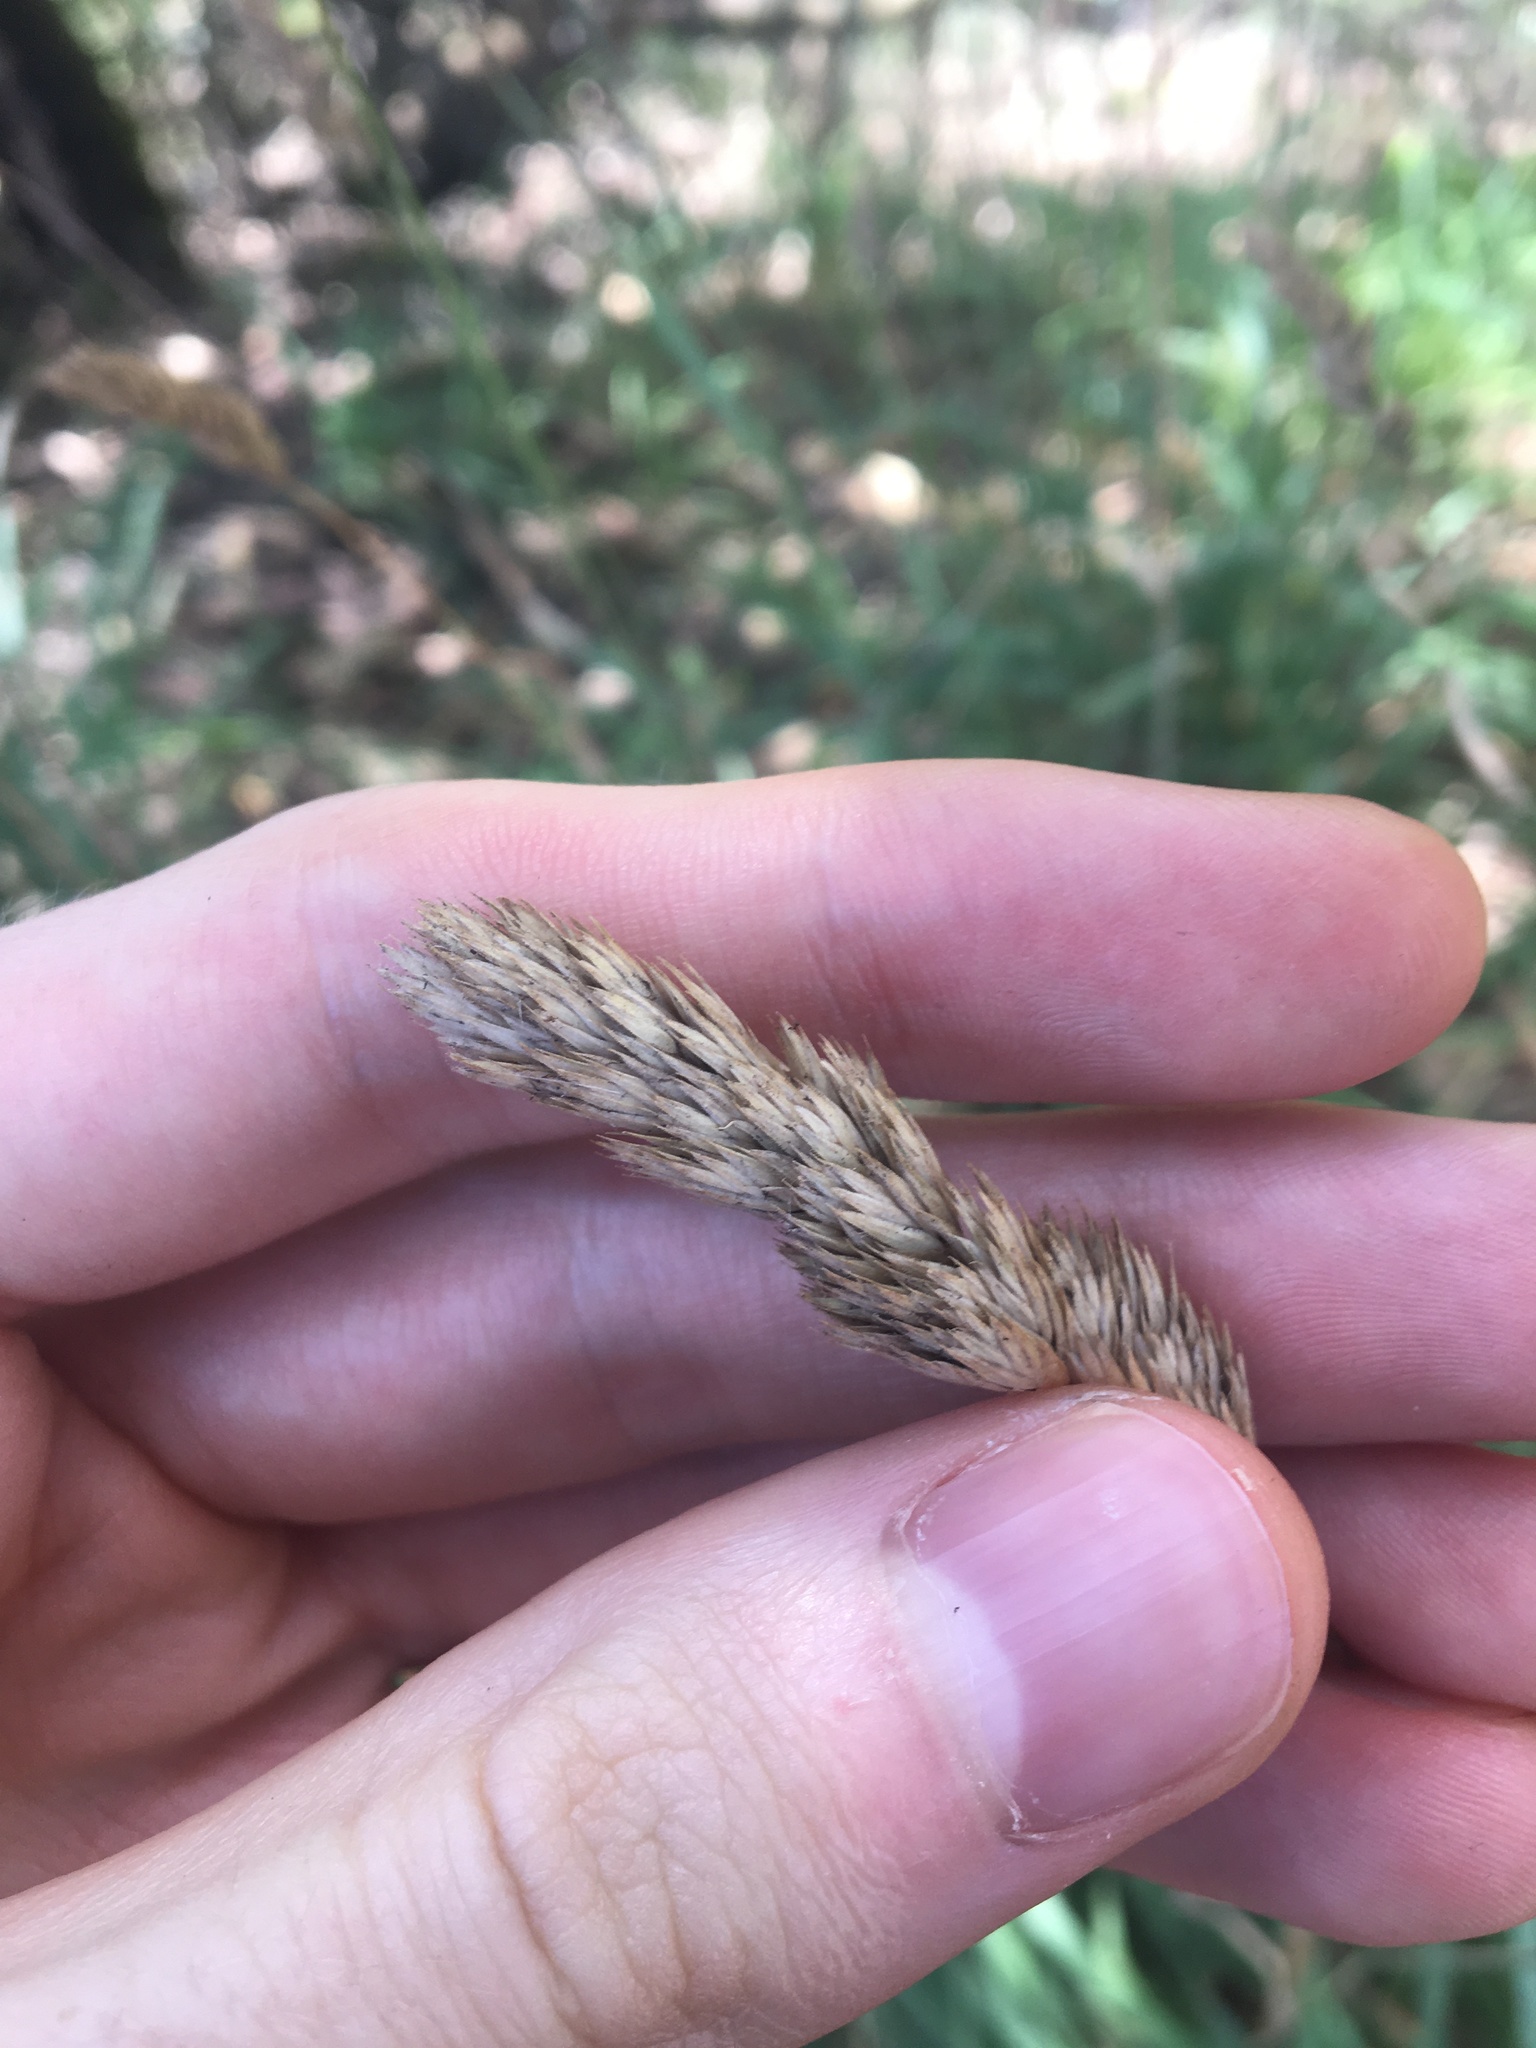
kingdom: Plantae
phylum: Tracheophyta
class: Liliopsida
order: Poales
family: Poaceae
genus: Dactylis
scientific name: Dactylis glomerata
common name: Orchardgrass
